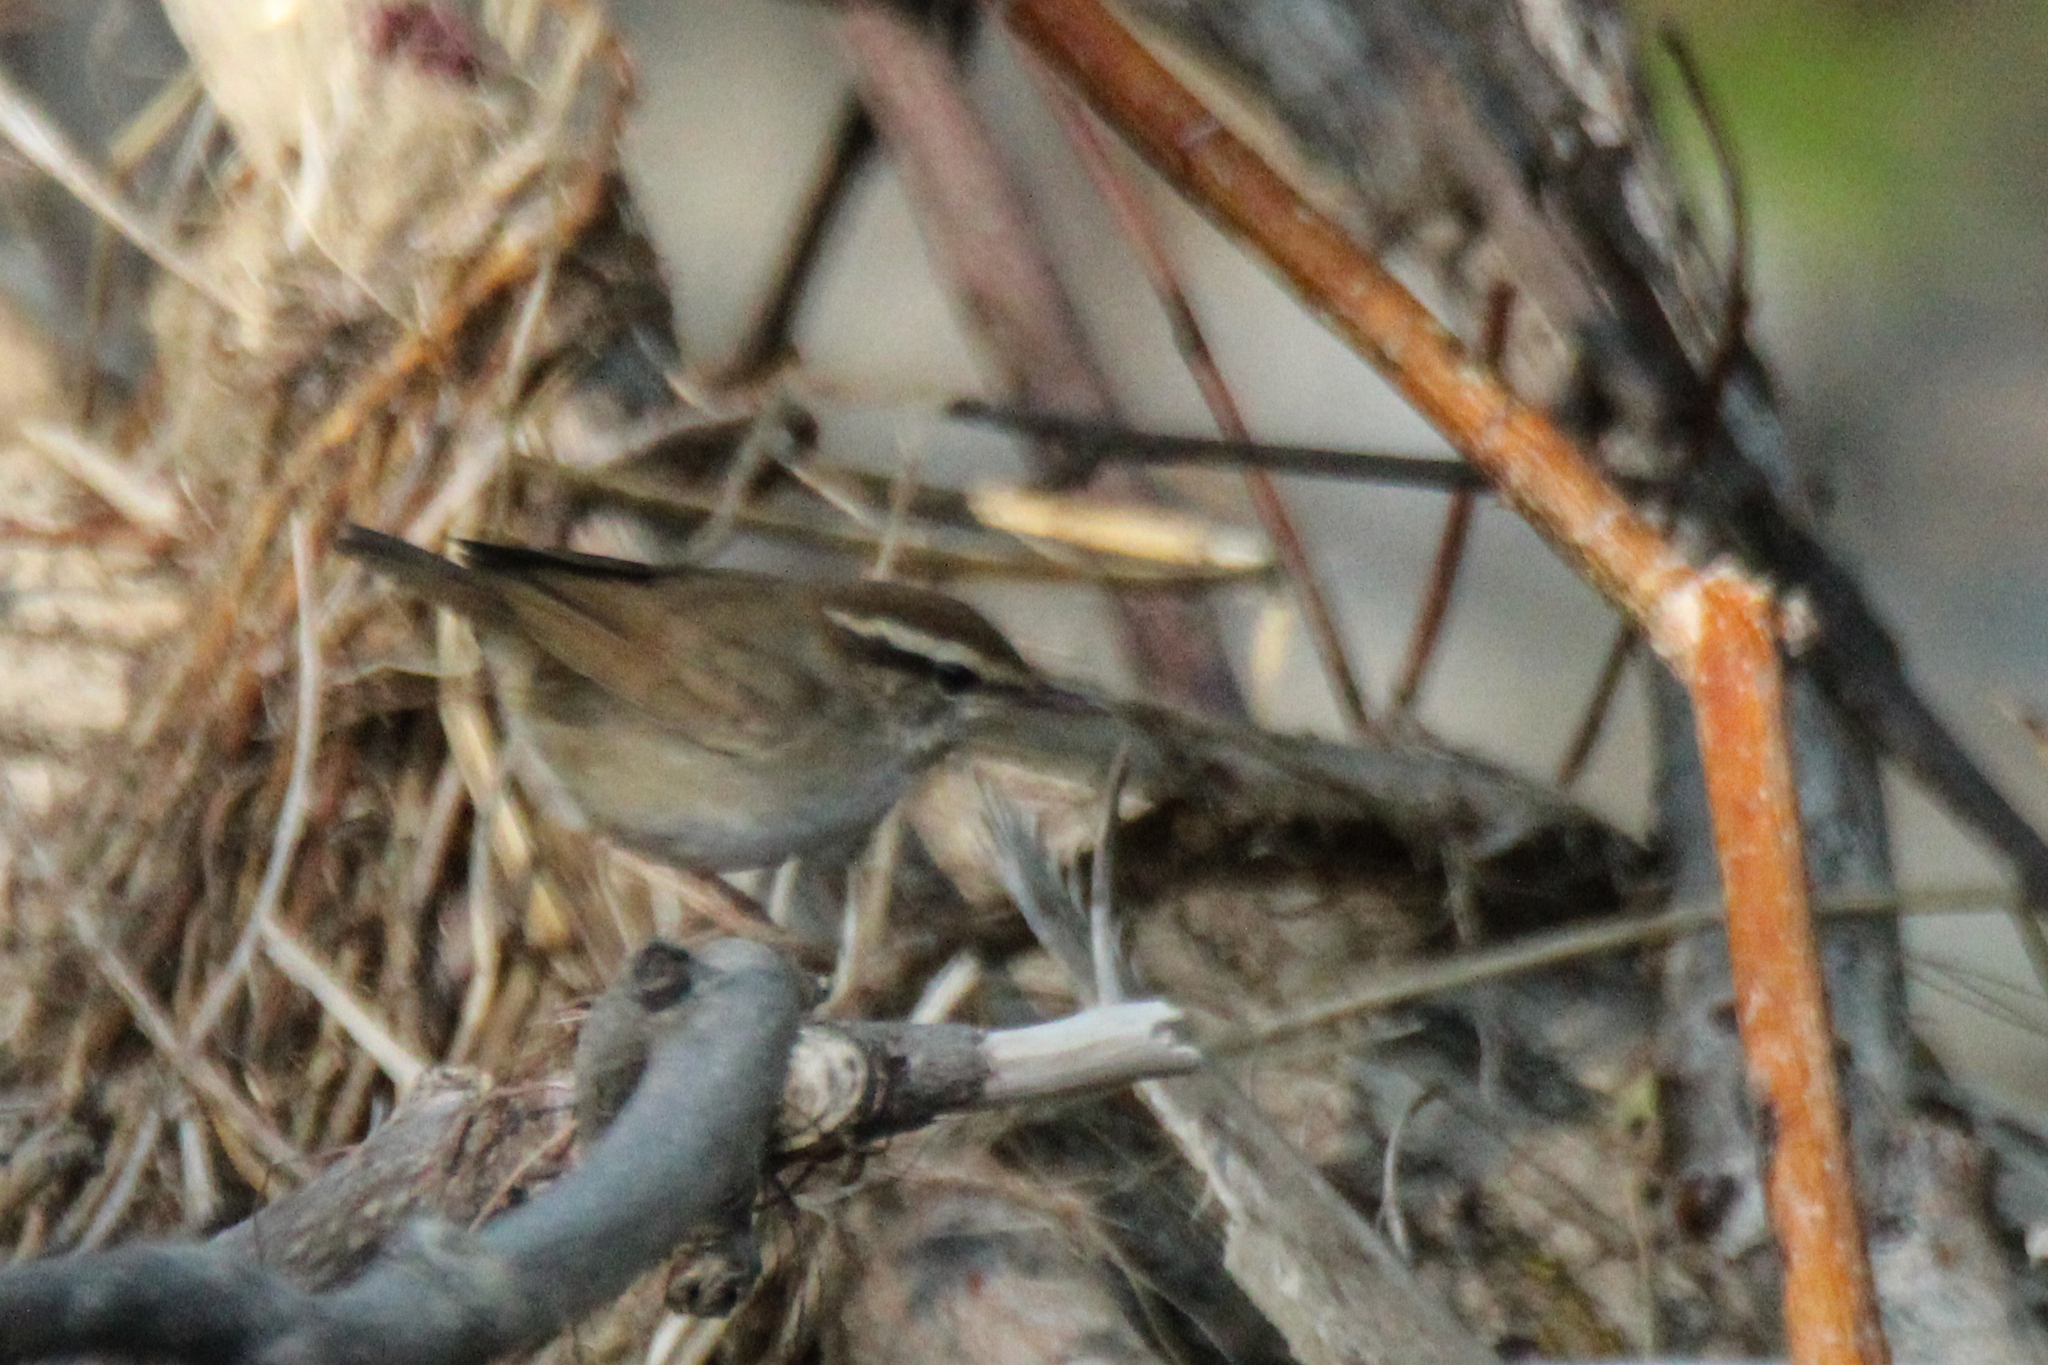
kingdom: Animalia
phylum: Chordata
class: Aves
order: Passeriformes
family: Cettiidae
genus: Urosphena
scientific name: Urosphena squameiceps
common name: Asian stubtail
